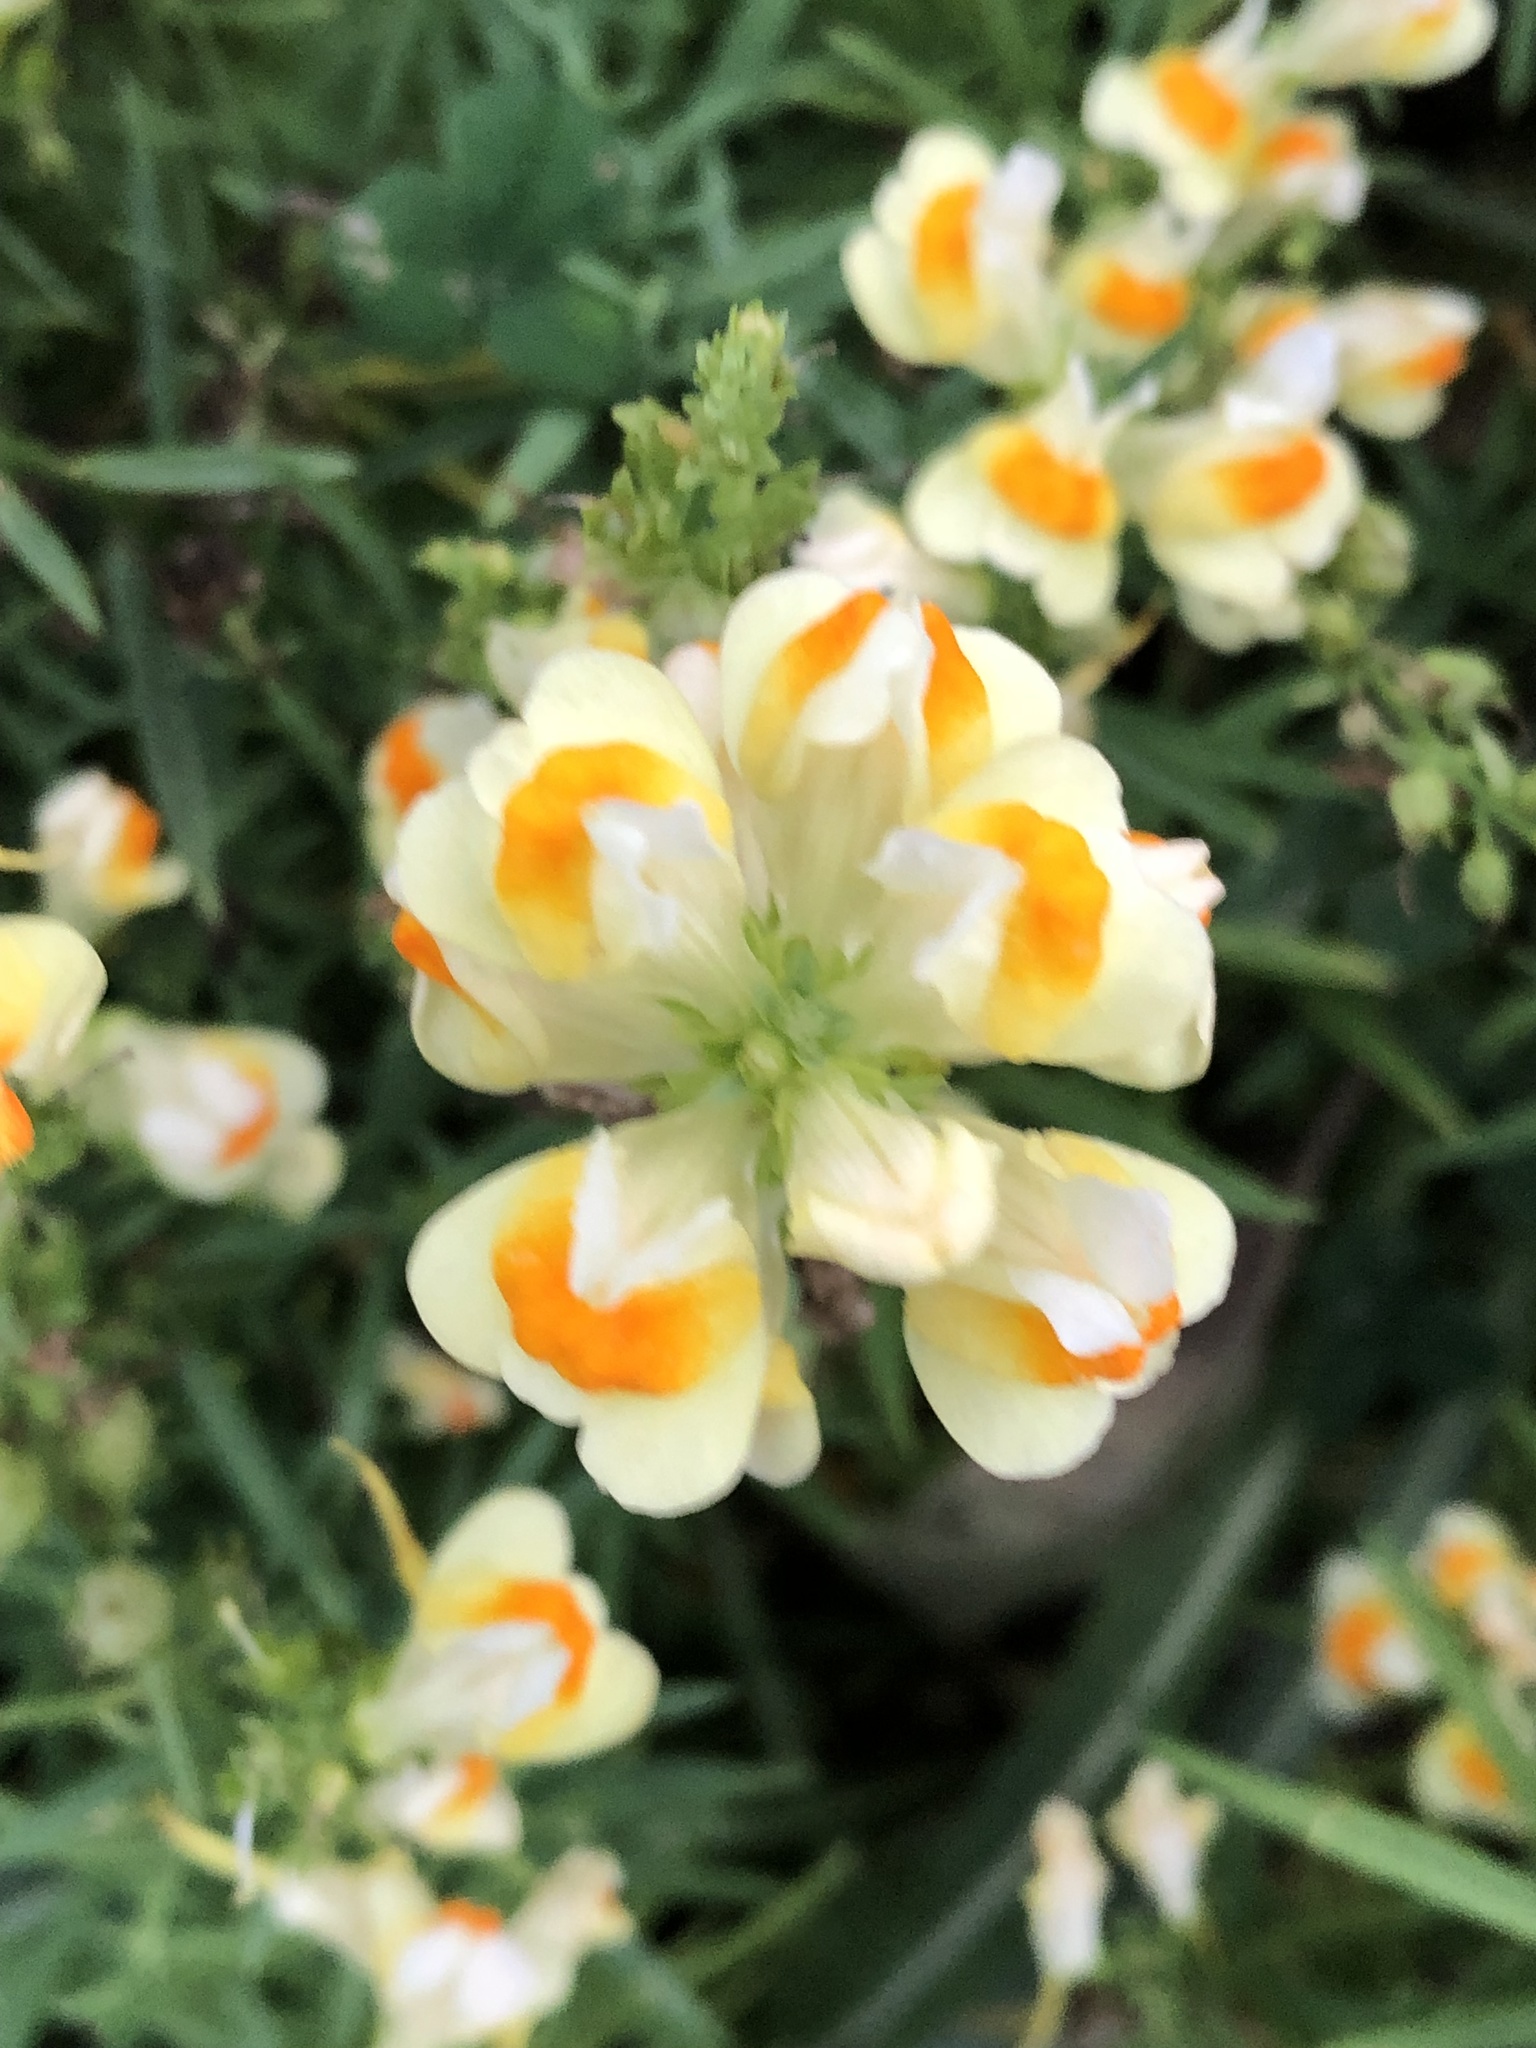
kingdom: Plantae
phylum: Tracheophyta
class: Magnoliopsida
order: Lamiales
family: Plantaginaceae
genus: Linaria
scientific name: Linaria vulgaris
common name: Butter and eggs
